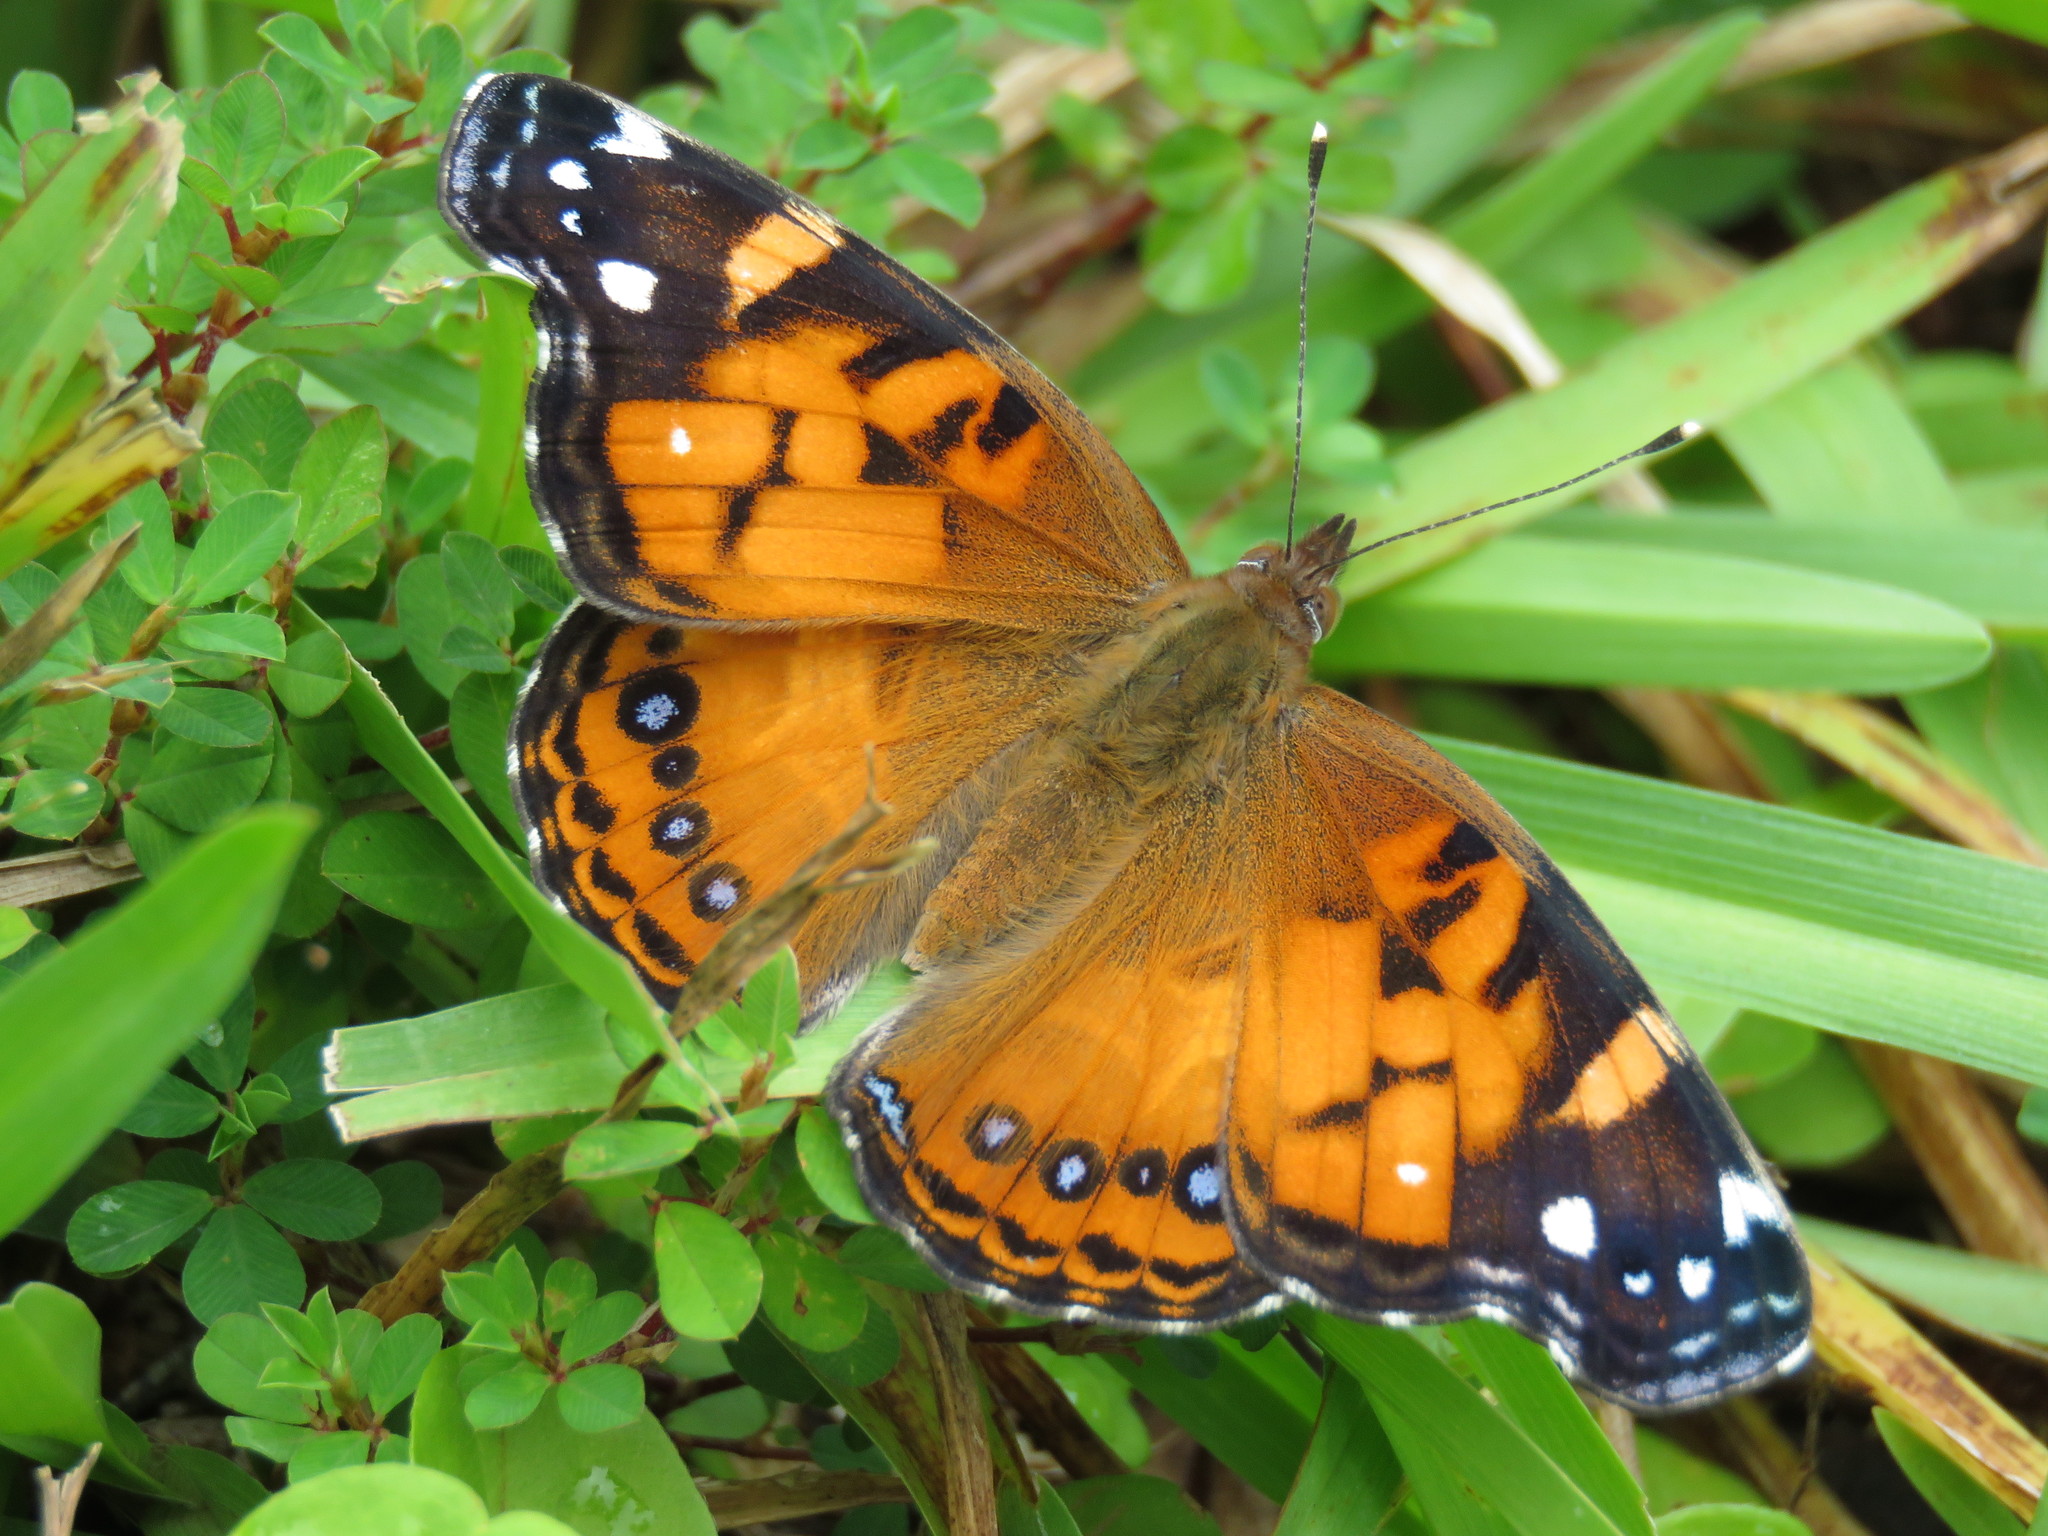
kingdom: Animalia
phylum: Arthropoda
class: Insecta
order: Lepidoptera
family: Nymphalidae
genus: Vanessa
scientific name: Vanessa virginiensis
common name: American lady
